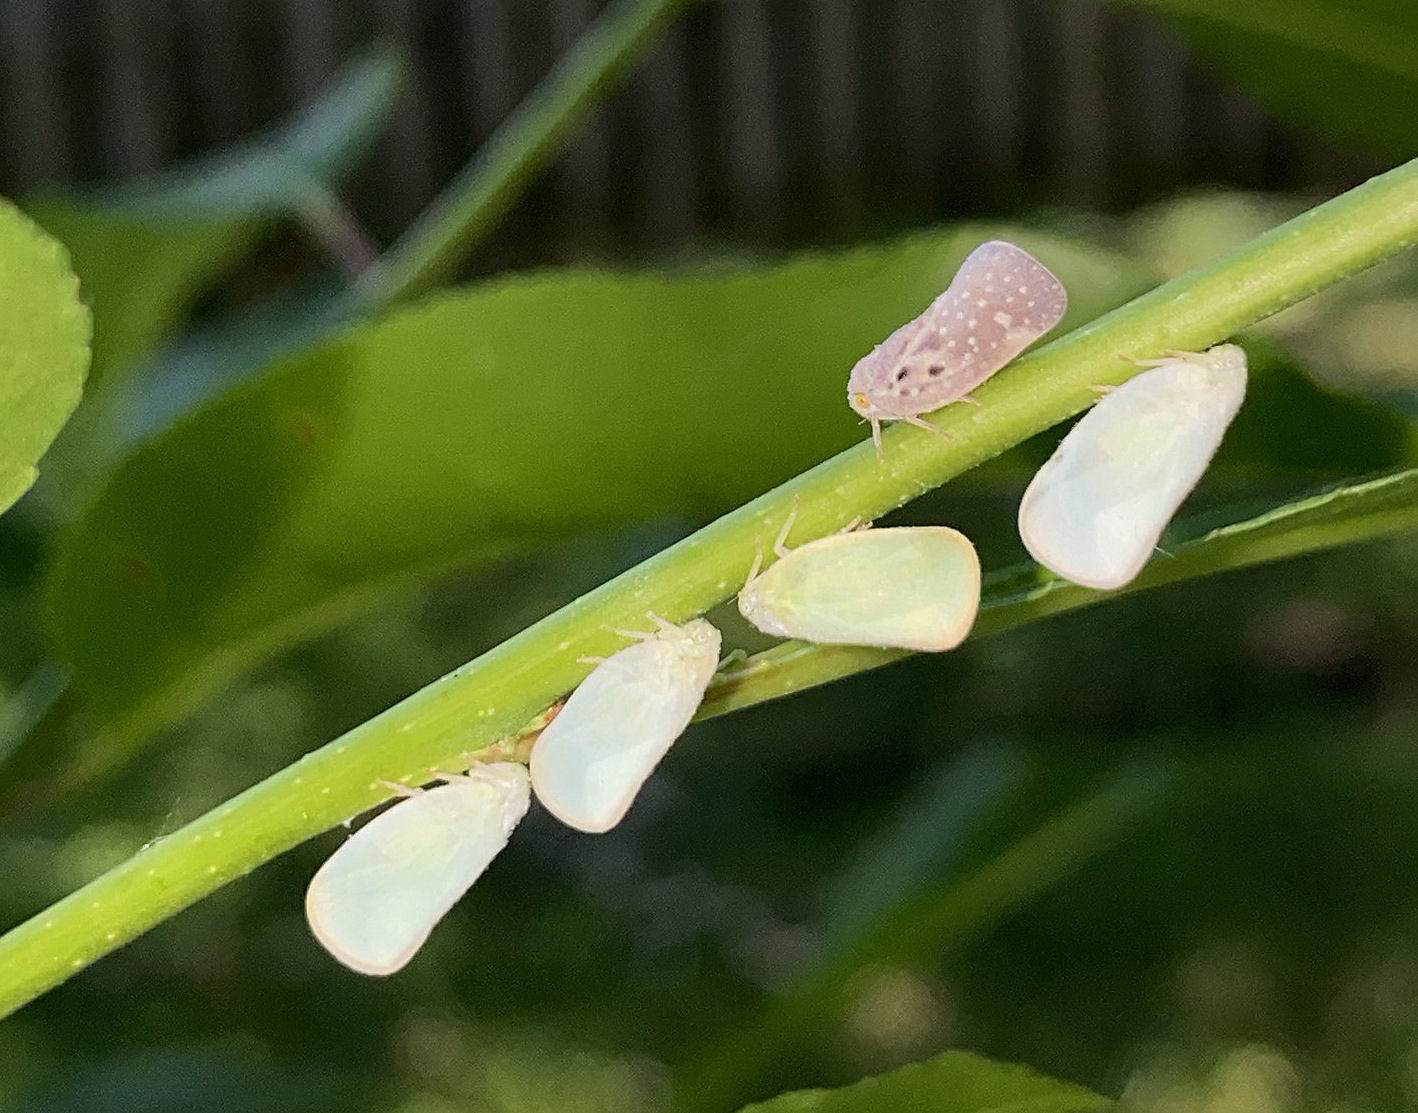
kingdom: Animalia
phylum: Arthropoda
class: Insecta
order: Hemiptera
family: Flatidae
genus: Metcalfa
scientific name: Metcalfa pruinosa
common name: Citrus flatid planthopper
